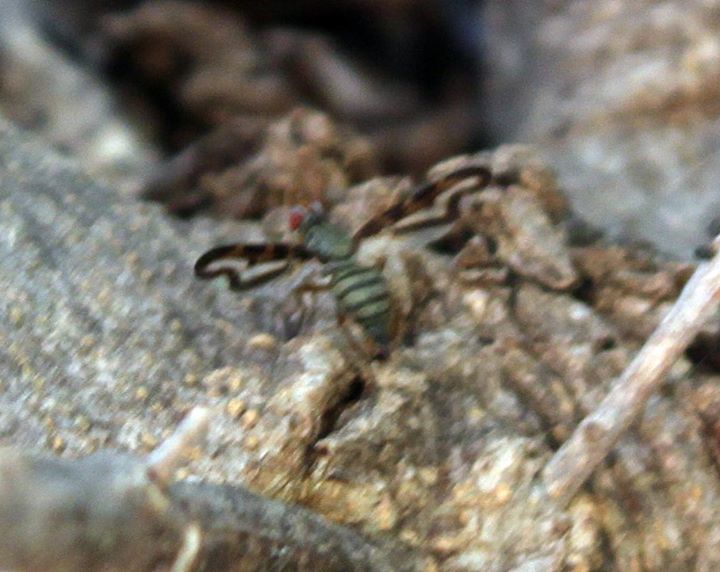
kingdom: Animalia
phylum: Arthropoda
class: Insecta
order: Diptera
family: Pallopteridae
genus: Toxonevra
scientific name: Toxonevra muliebris
